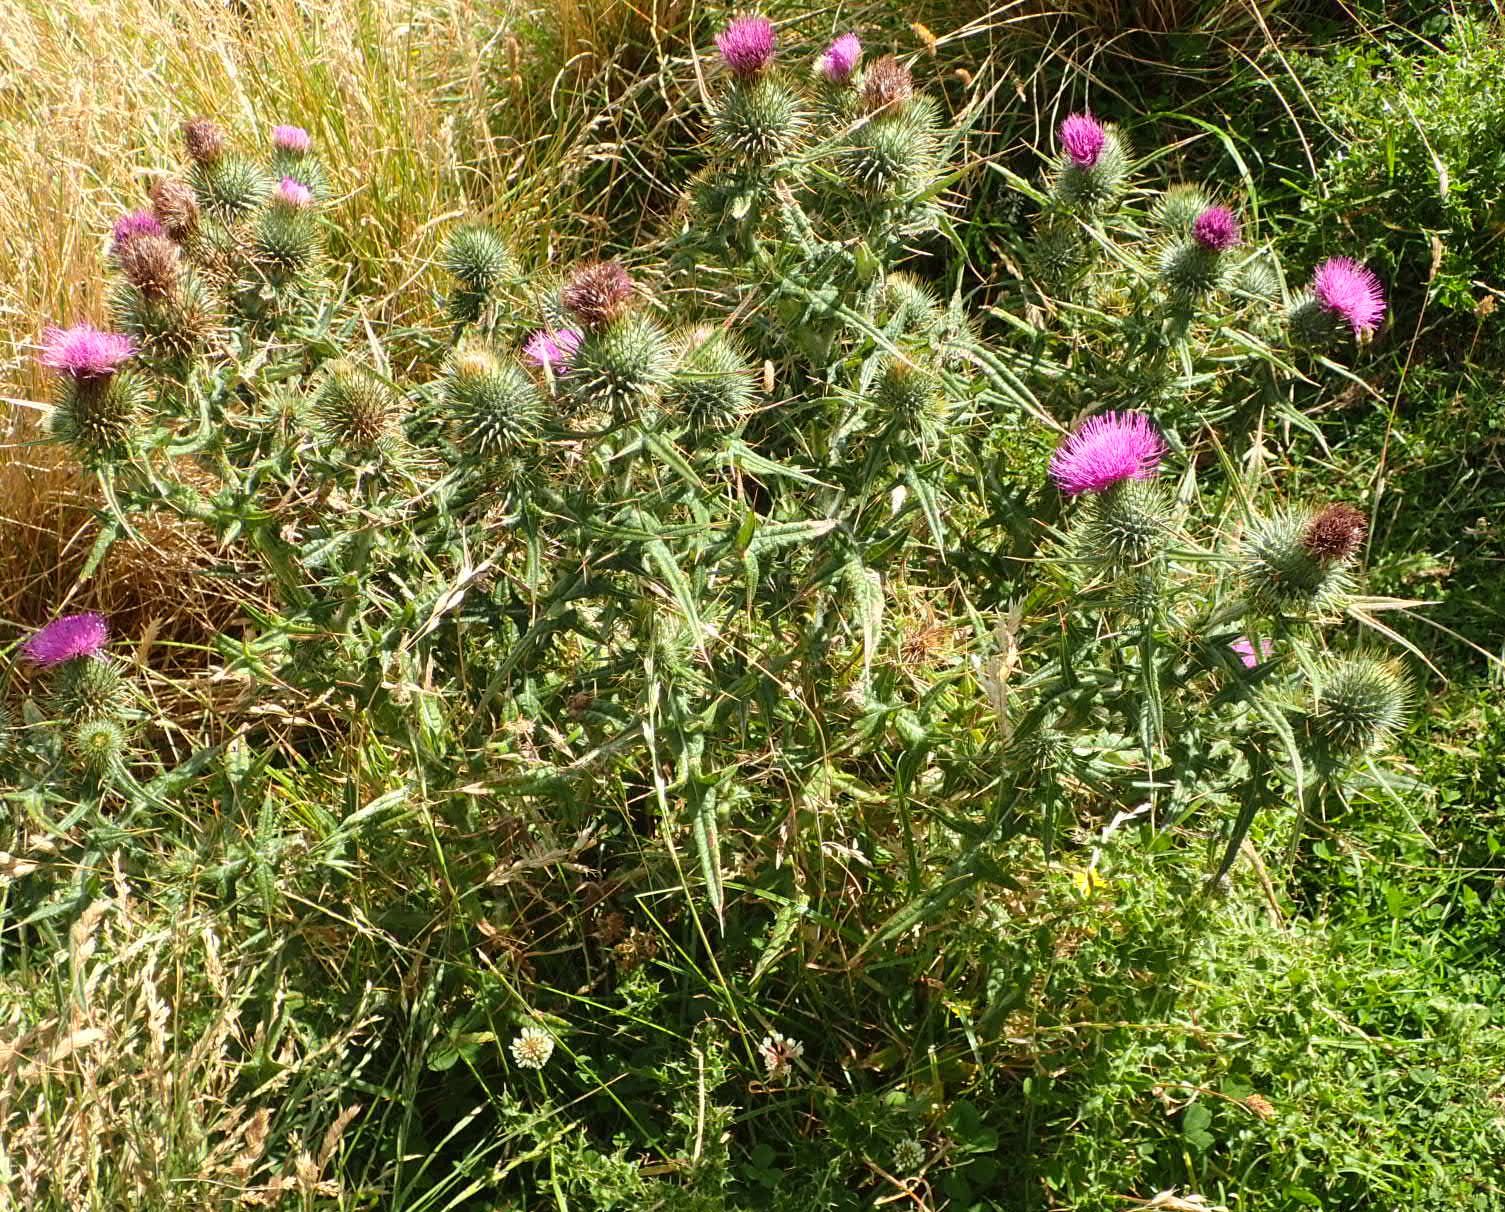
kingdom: Plantae
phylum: Tracheophyta
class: Magnoliopsida
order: Asterales
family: Asteraceae
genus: Cirsium
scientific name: Cirsium vulgare
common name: Bull thistle
